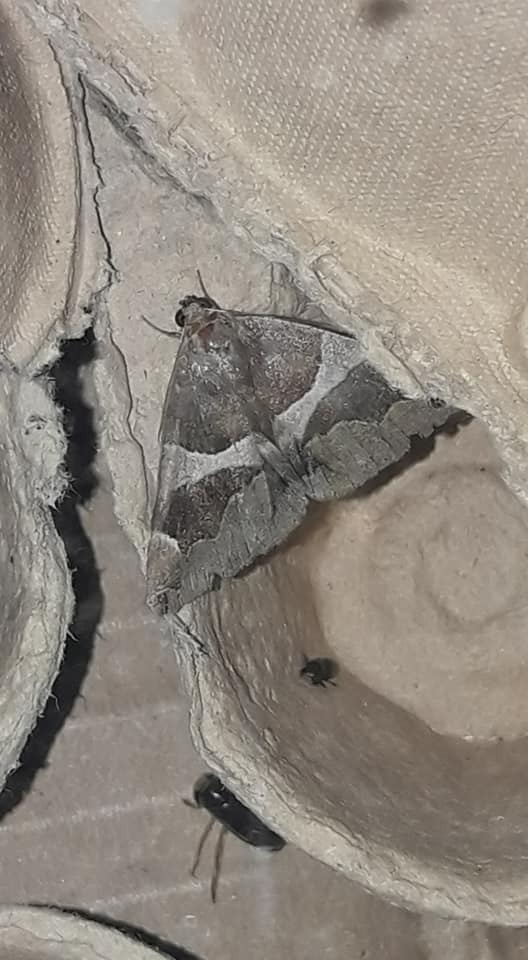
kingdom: Animalia
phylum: Arthropoda
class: Insecta
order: Lepidoptera
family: Erebidae
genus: Dysgonia
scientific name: Dysgonia algira
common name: Passenger
